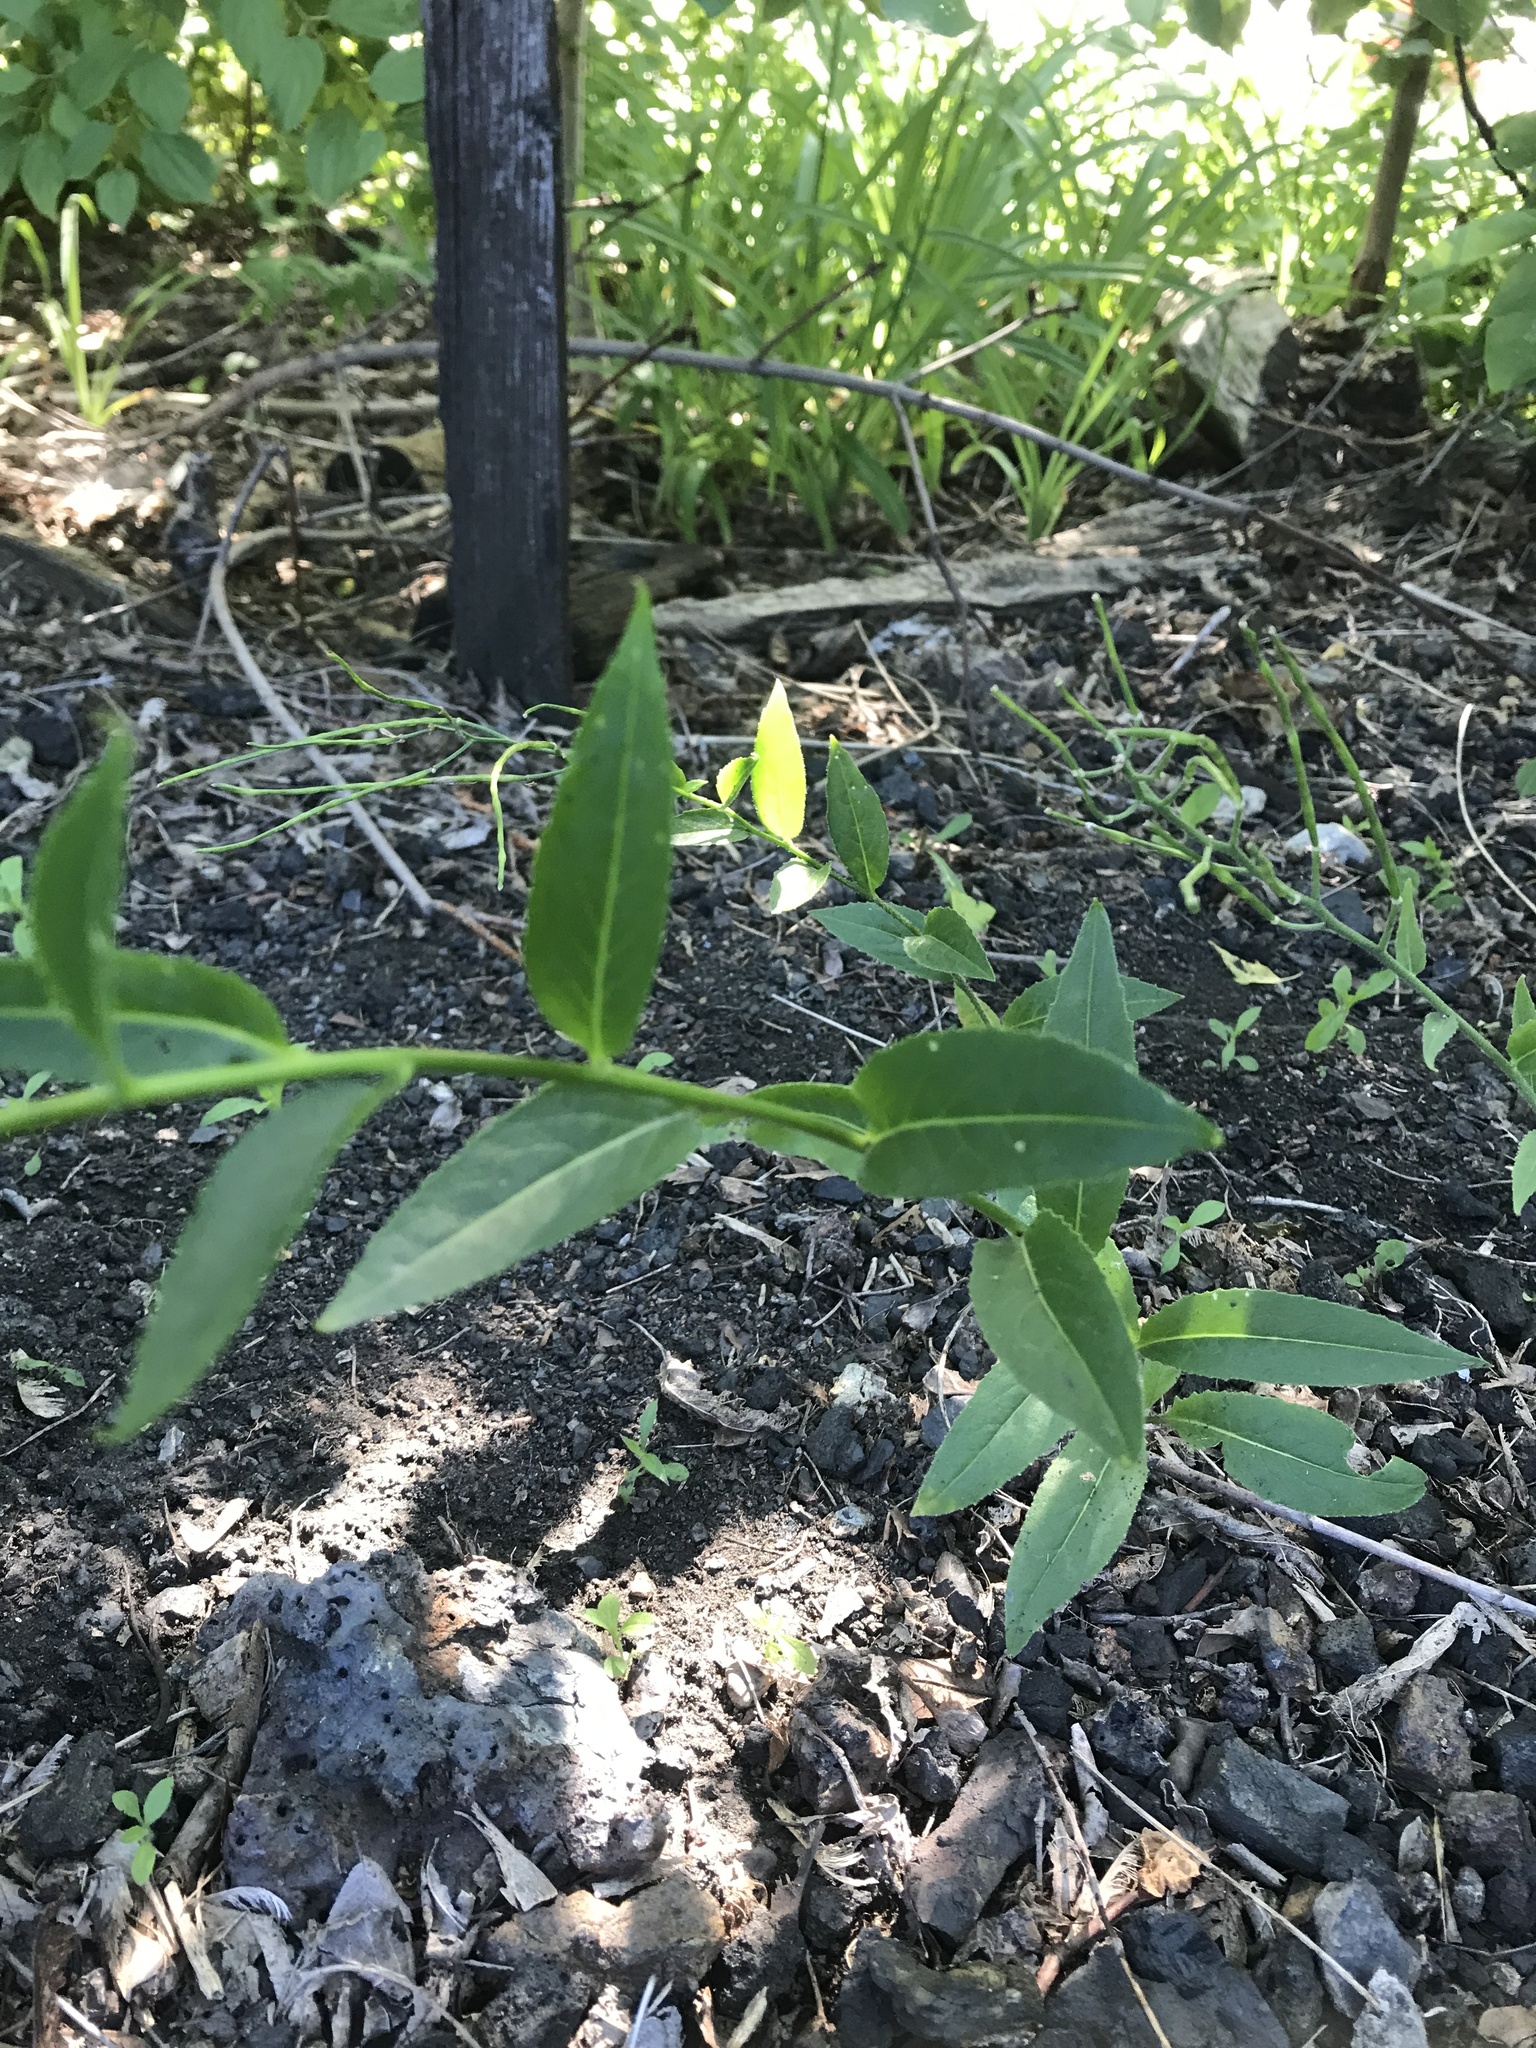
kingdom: Plantae
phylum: Tracheophyta
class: Magnoliopsida
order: Brassicales
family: Brassicaceae
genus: Hesperis
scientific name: Hesperis matronalis
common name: Dame's-violet
